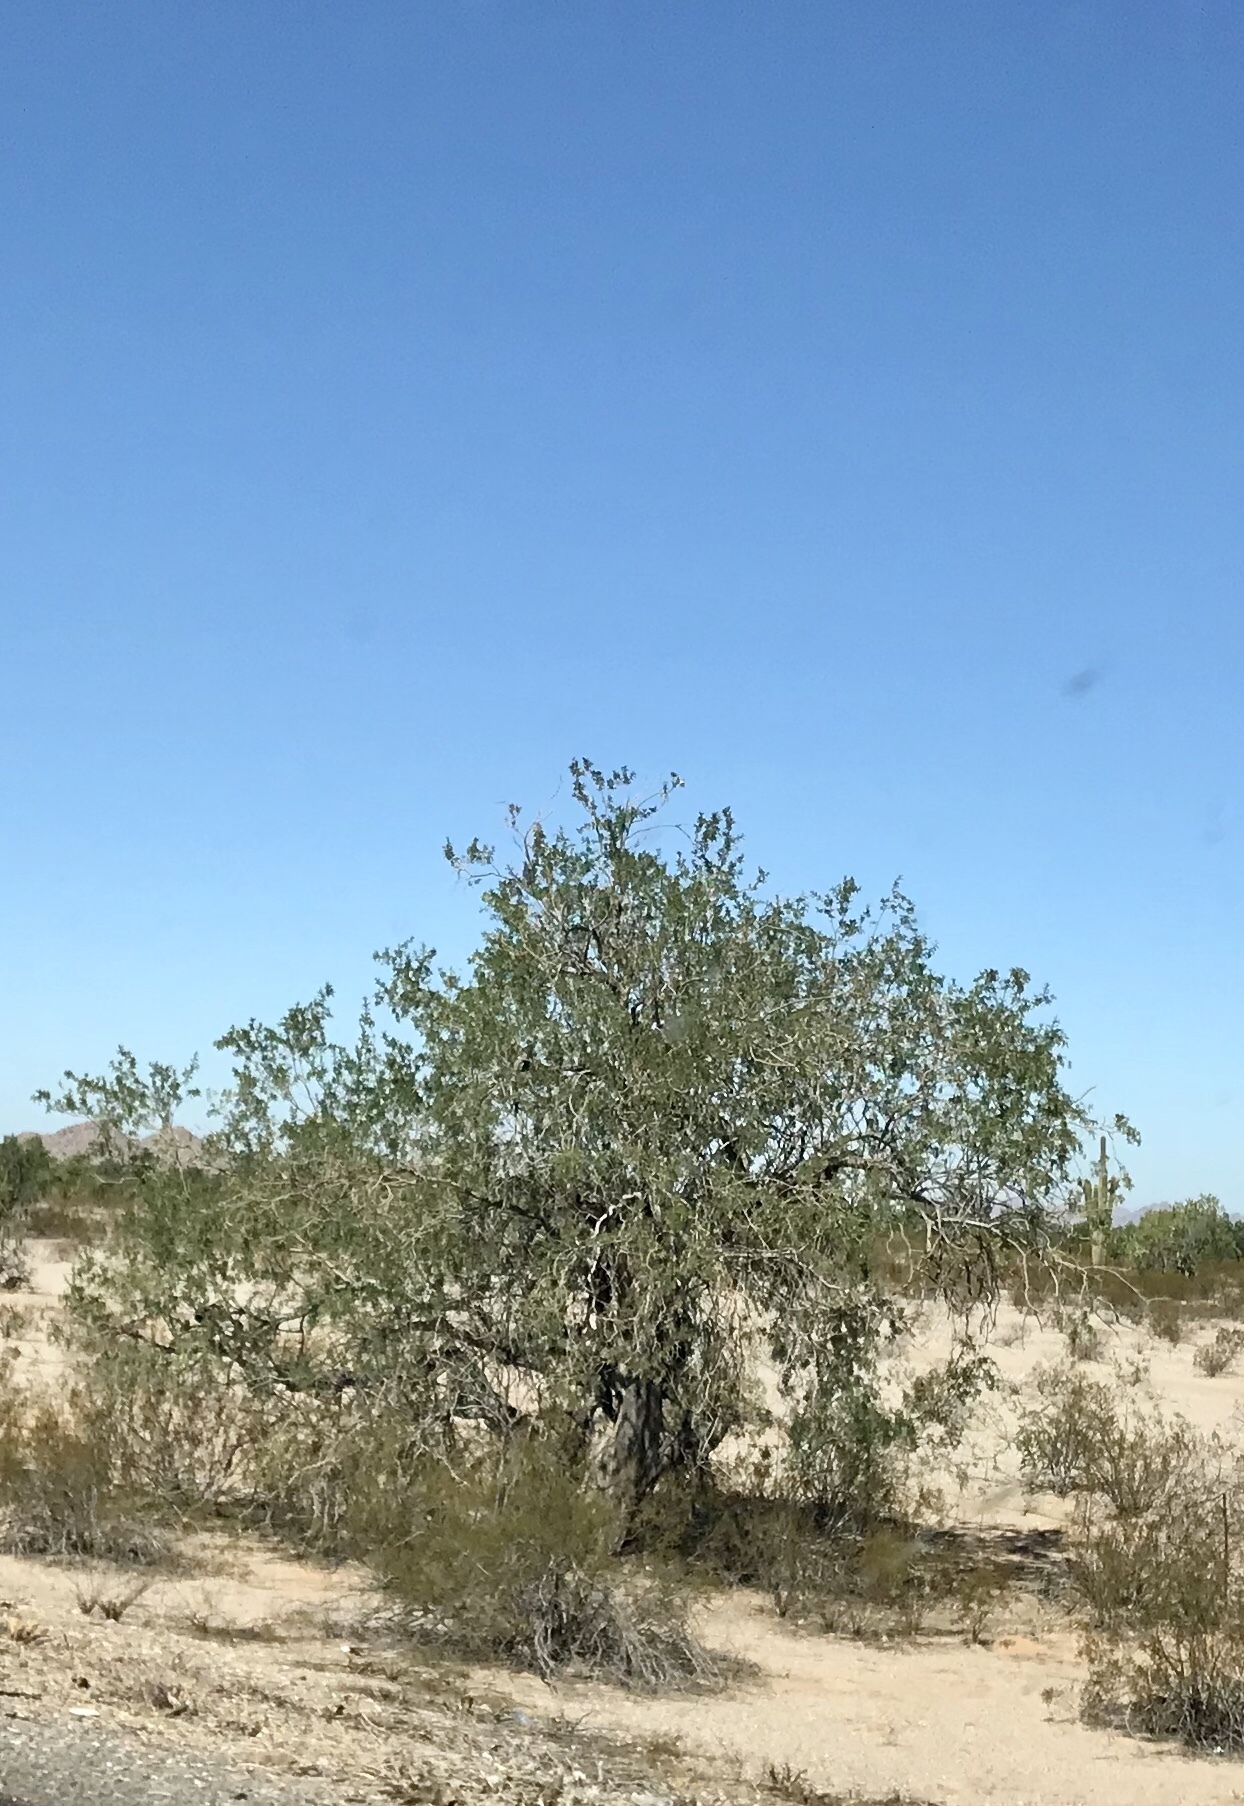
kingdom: Plantae
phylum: Tracheophyta
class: Magnoliopsida
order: Fabales
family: Fabaceae
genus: Olneya
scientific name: Olneya tesota
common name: Desert ironwood
